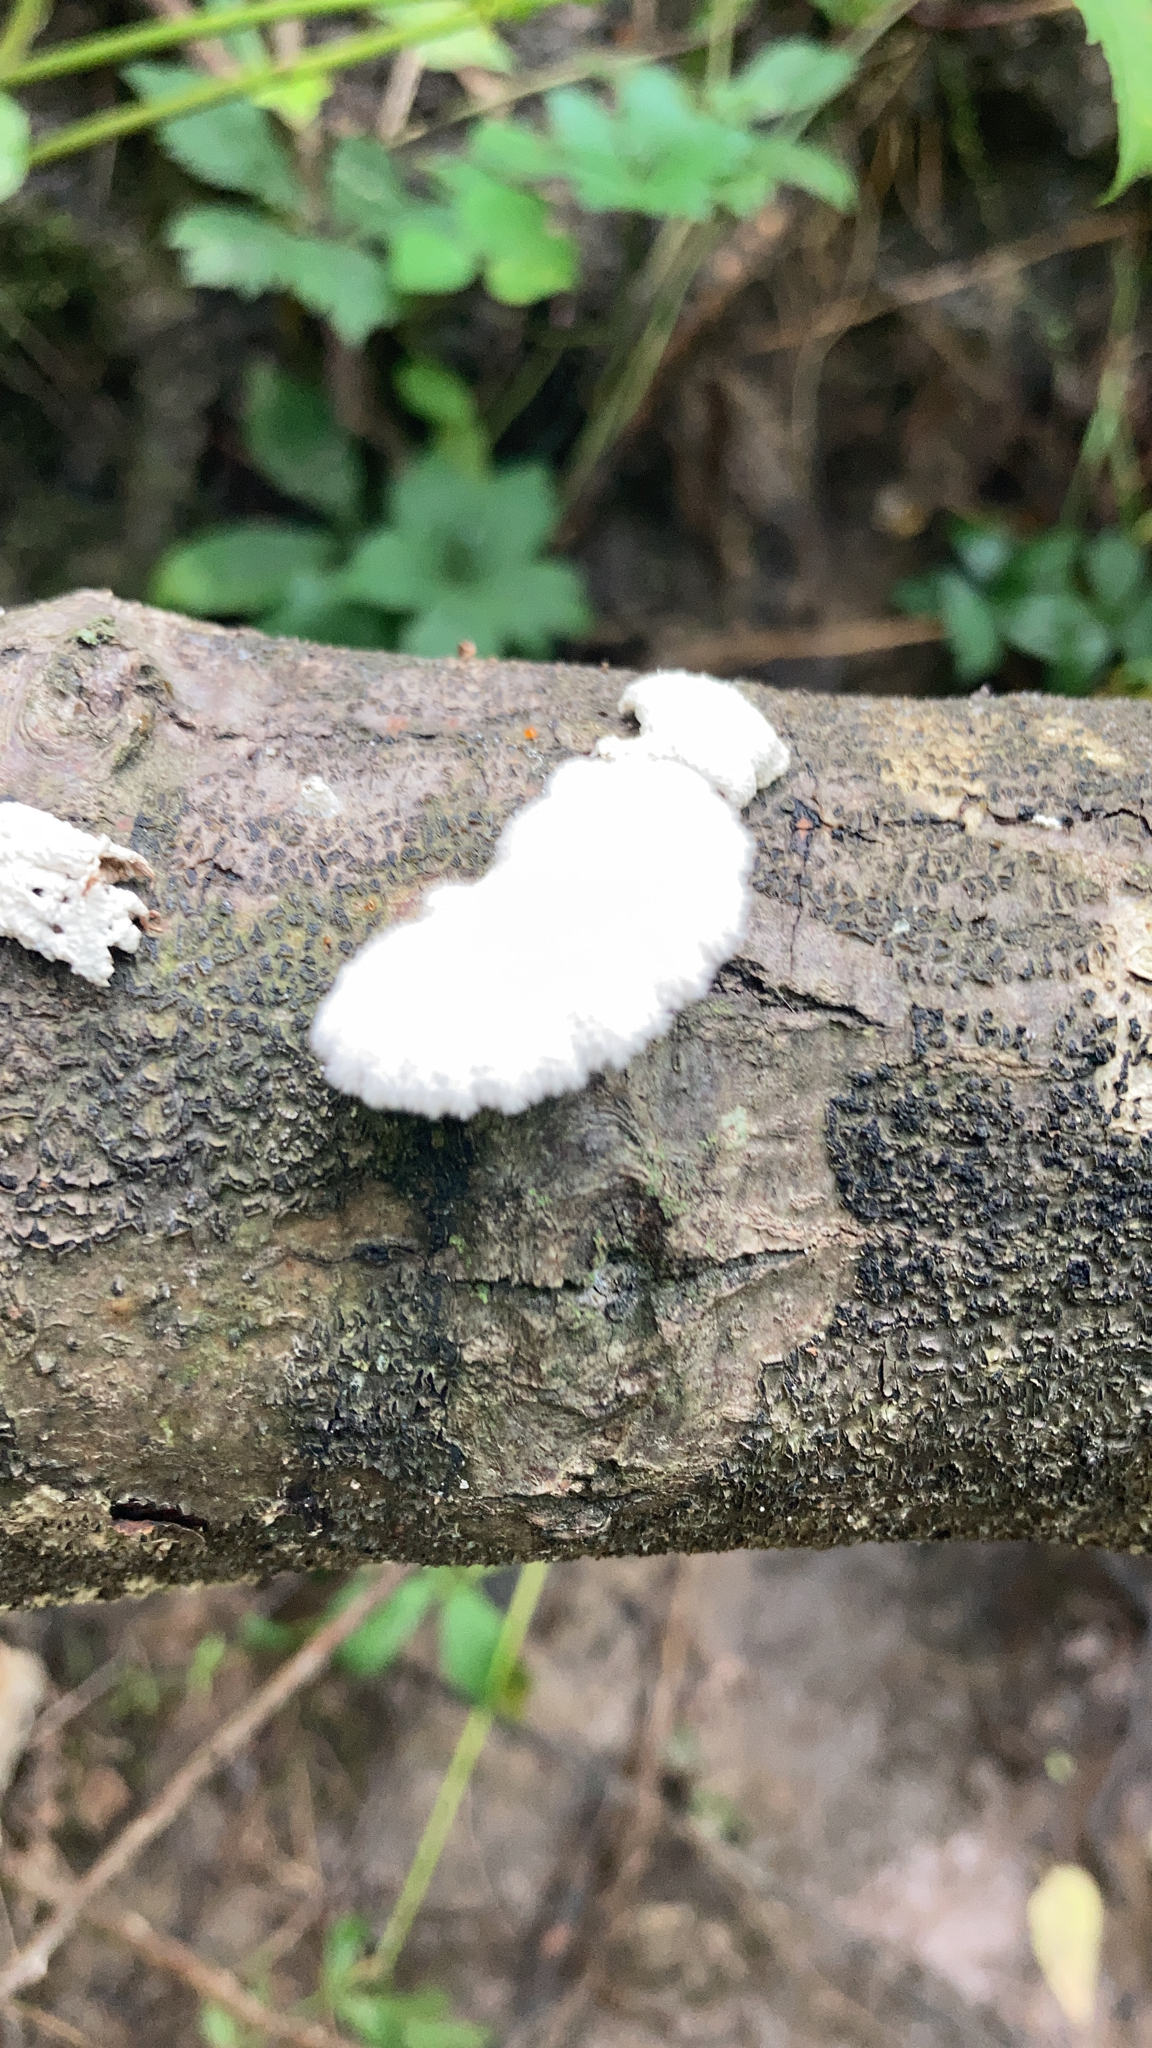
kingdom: Fungi
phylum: Basidiomycota
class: Agaricomycetes
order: Agaricales
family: Schizophyllaceae
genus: Schizophyllum
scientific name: Schizophyllum commune
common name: Common porecrust
